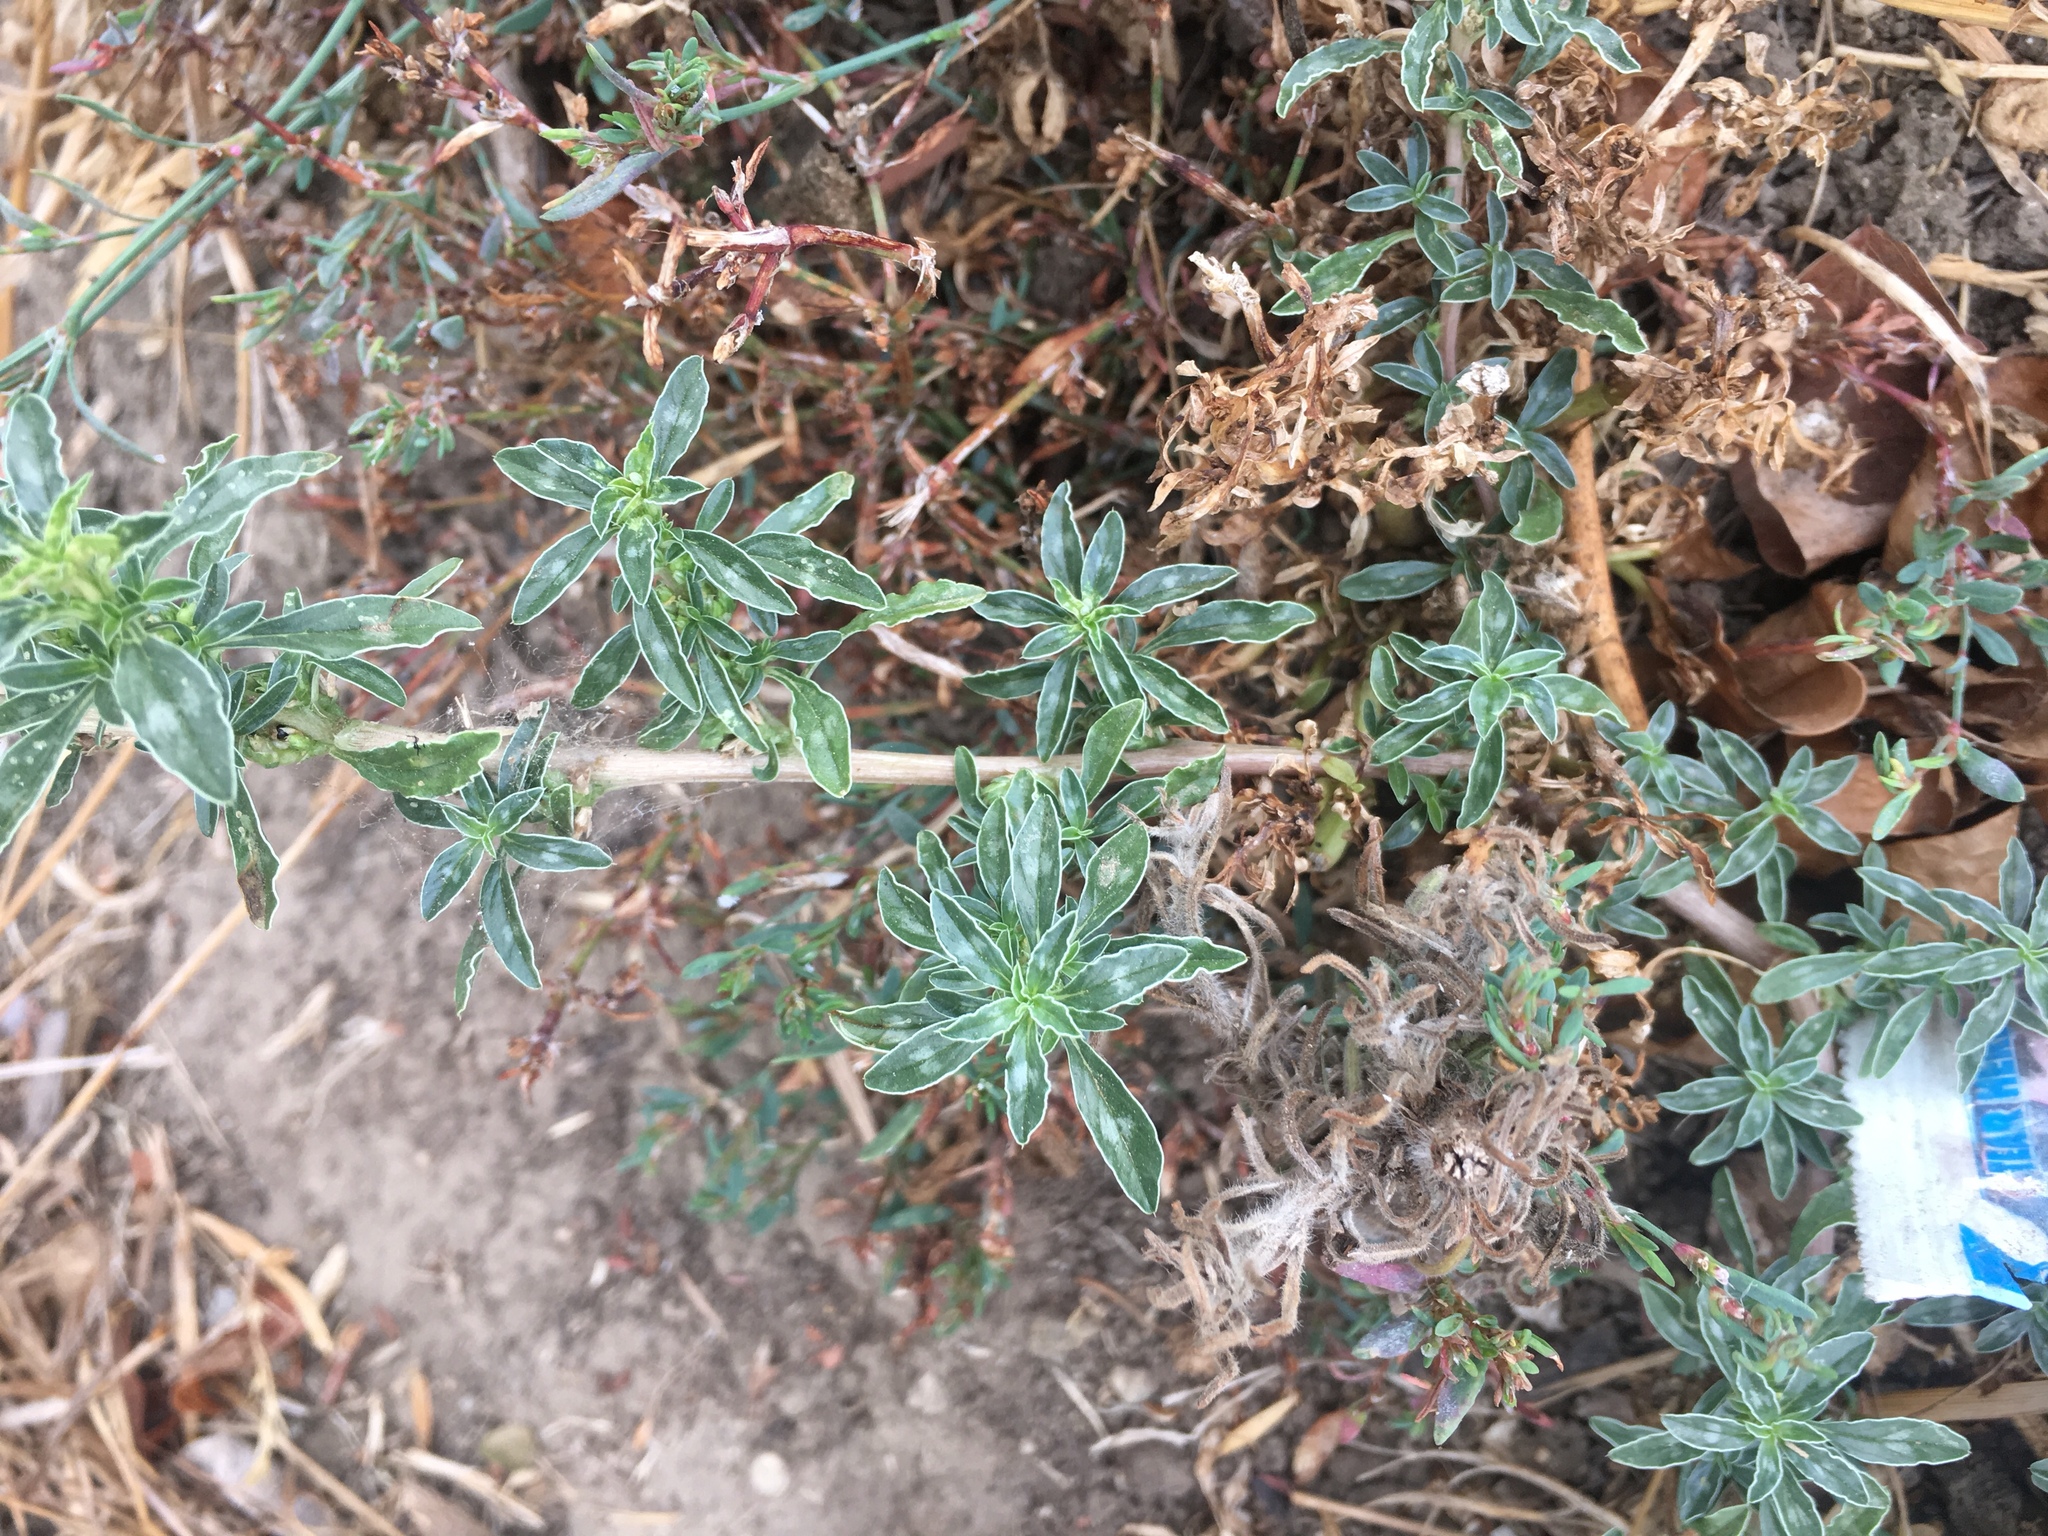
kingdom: Plantae
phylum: Tracheophyta
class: Magnoliopsida
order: Caryophyllales
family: Amaranthaceae
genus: Amaranthus
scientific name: Amaranthus blitoides
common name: Prostrate pigweed
